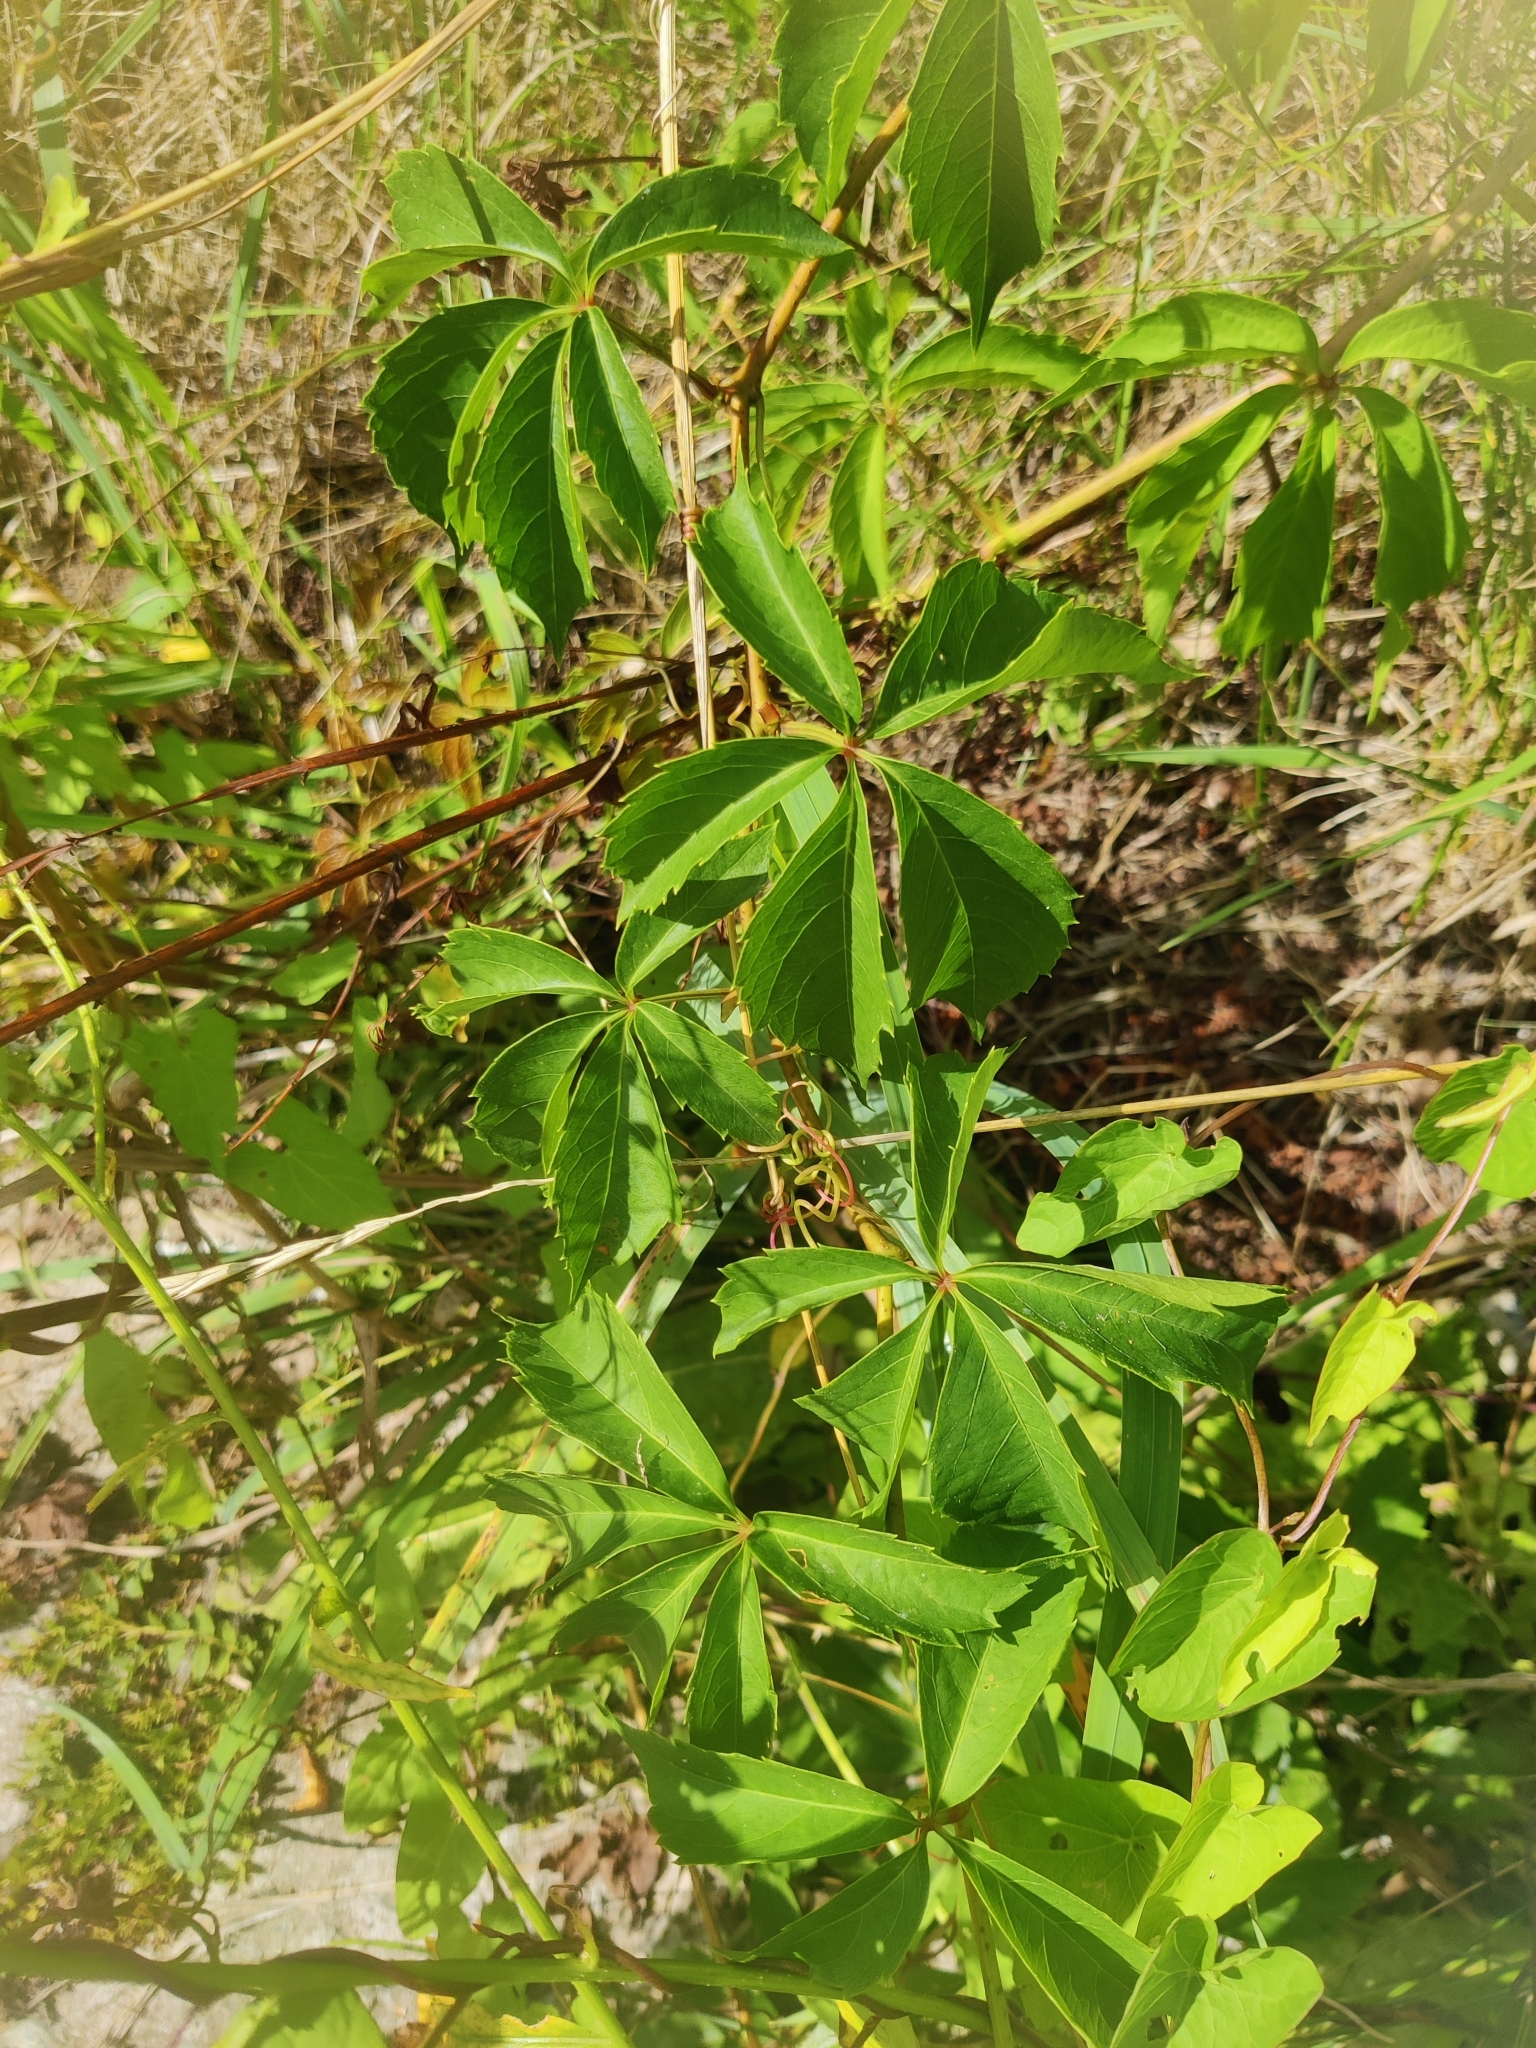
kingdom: Plantae
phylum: Tracheophyta
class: Magnoliopsida
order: Vitales
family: Vitaceae
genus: Parthenocissus
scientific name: Parthenocissus inserta
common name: False virginia-creeper
